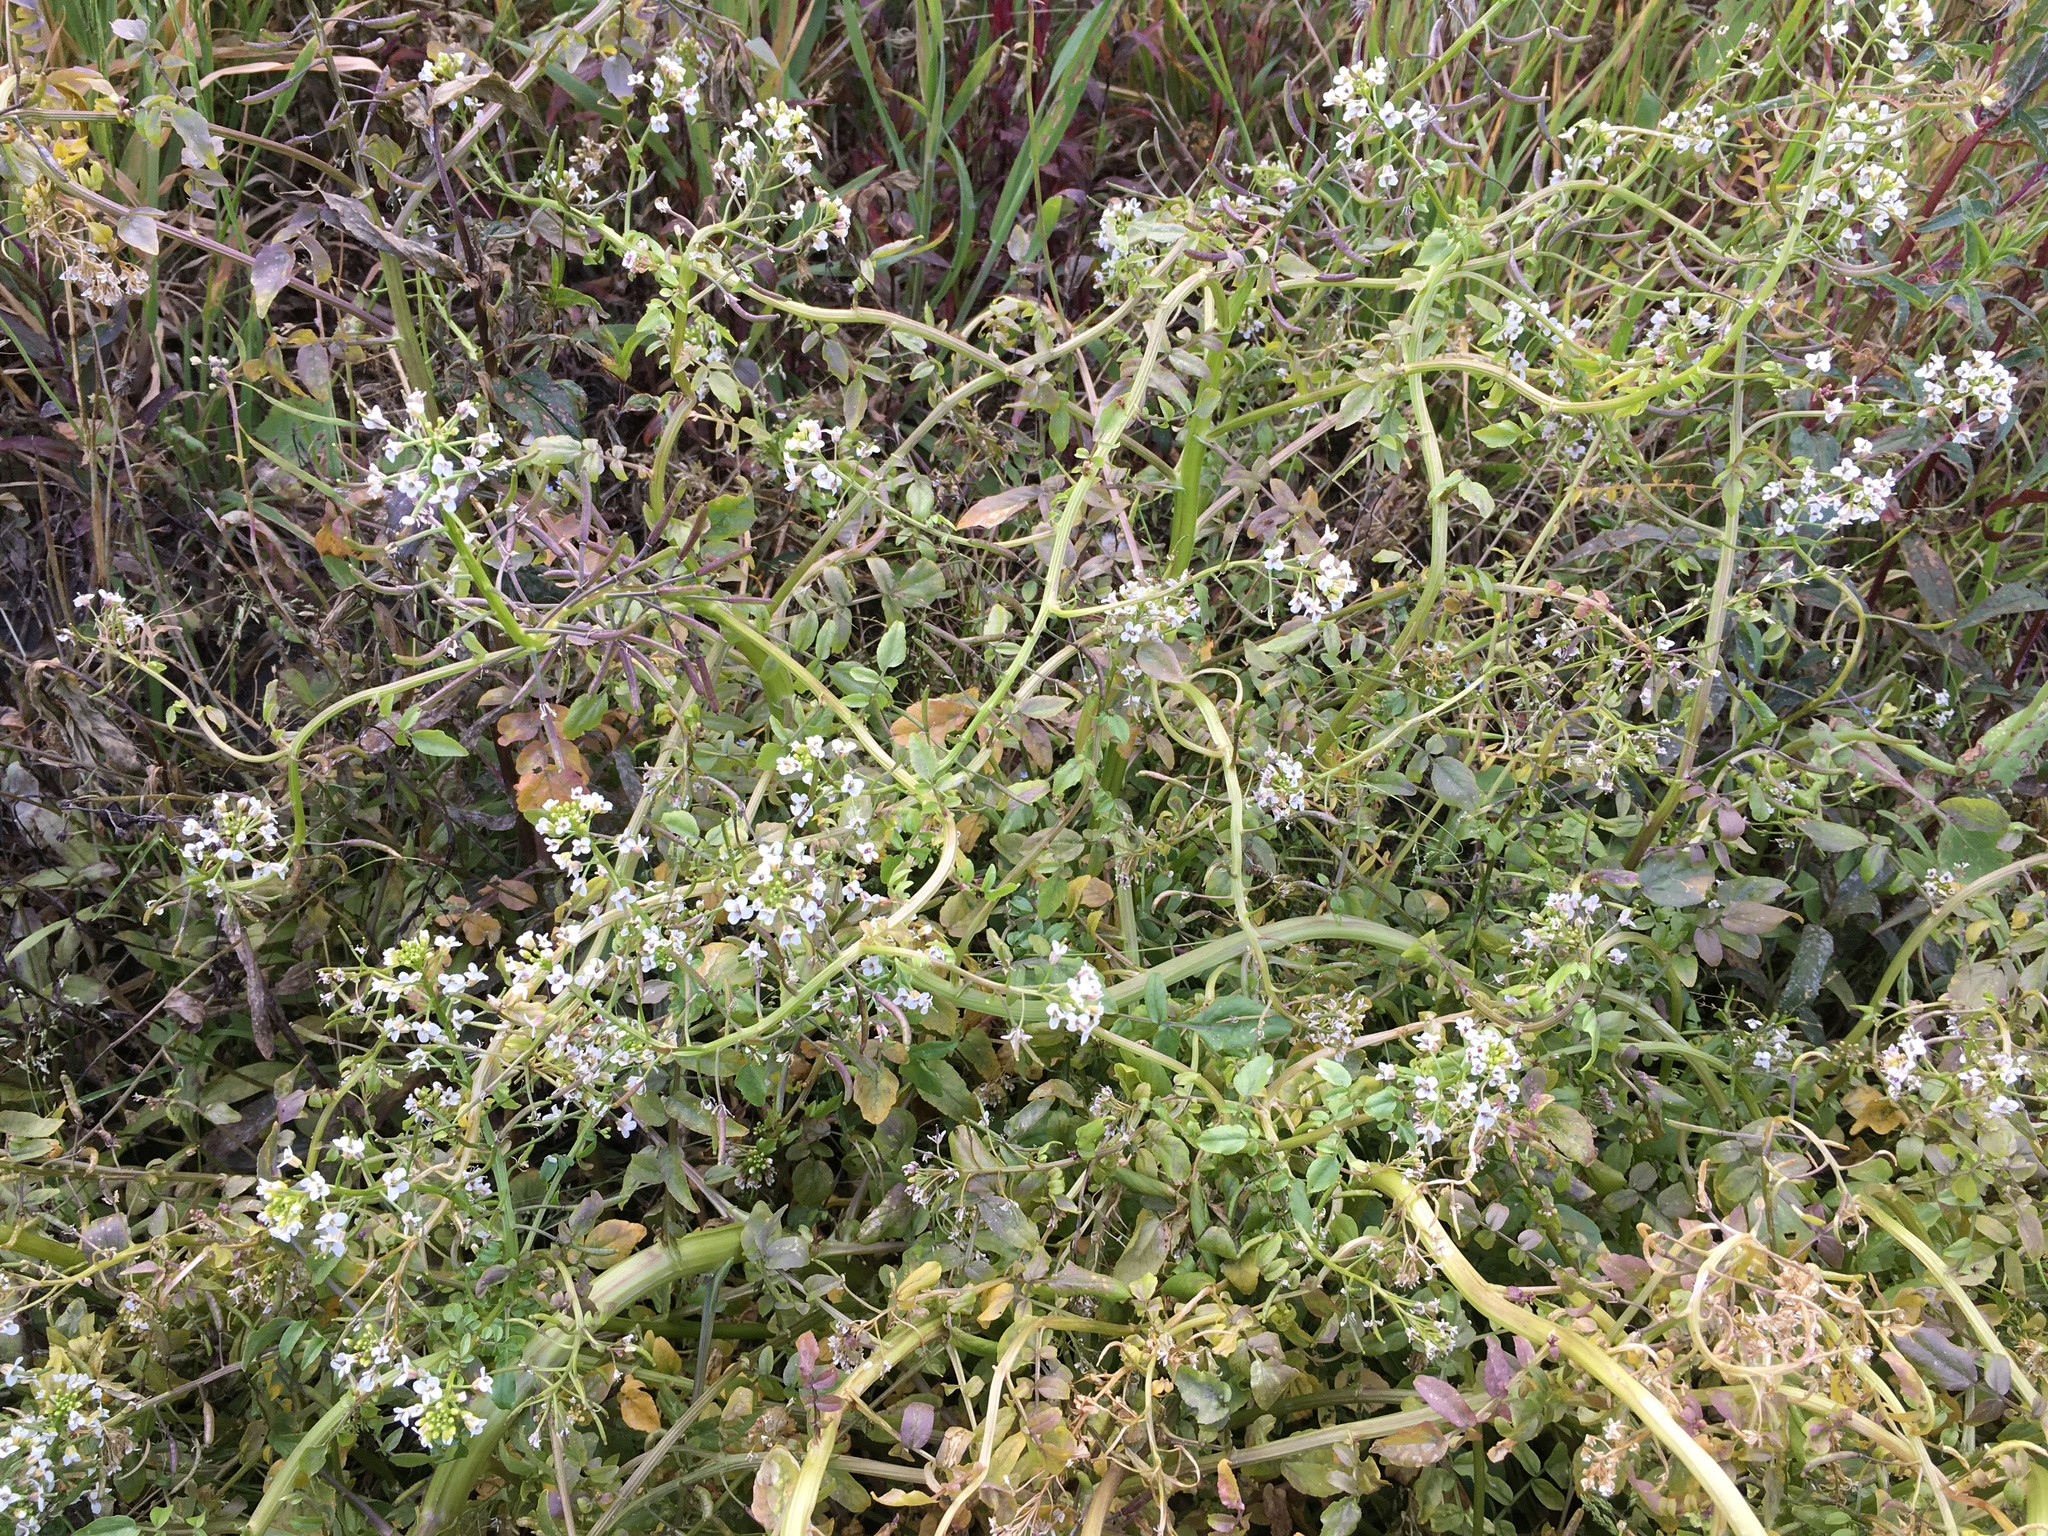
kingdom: Plantae
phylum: Tracheophyta
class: Magnoliopsida
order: Brassicales
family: Brassicaceae
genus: Nasturtium
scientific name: Nasturtium officinale
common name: Watercress
